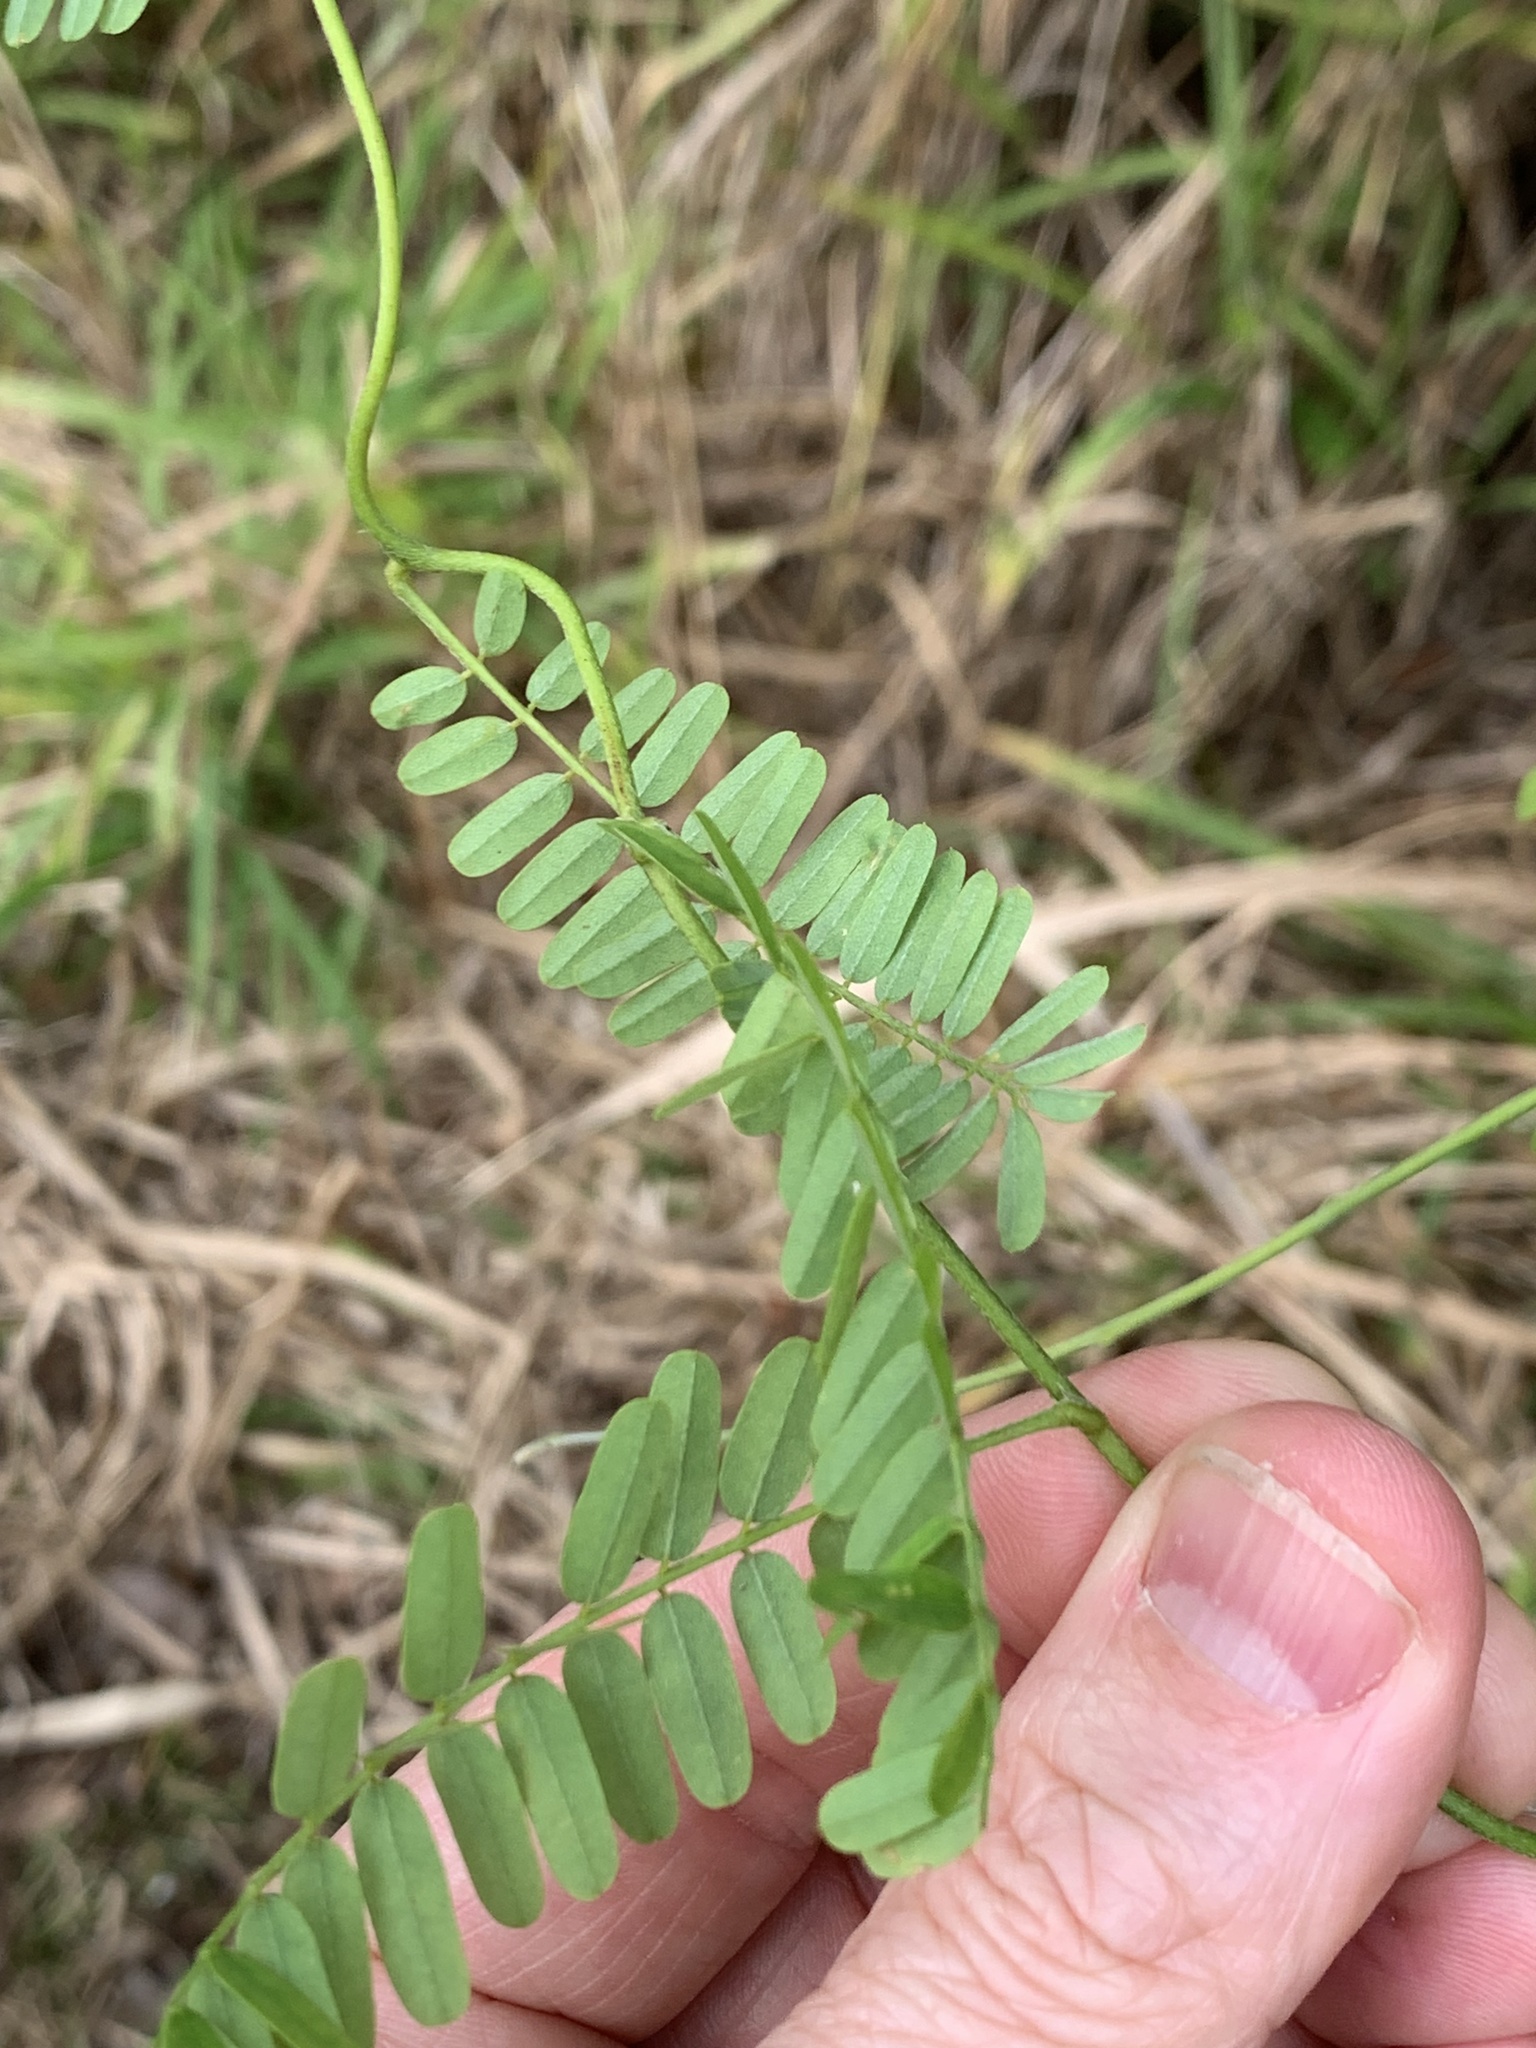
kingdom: Plantae
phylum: Tracheophyta
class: Magnoliopsida
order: Fabales
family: Fabaceae
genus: Abrus
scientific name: Abrus precatorius
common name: Rosarypea
